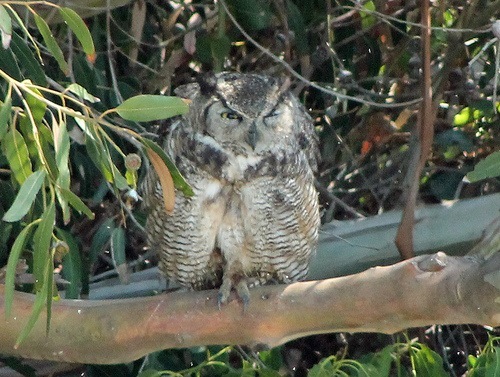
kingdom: Animalia
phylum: Chordata
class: Aves
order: Strigiformes
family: Strigidae
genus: Bubo
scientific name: Bubo virginianus
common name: Great horned owl
